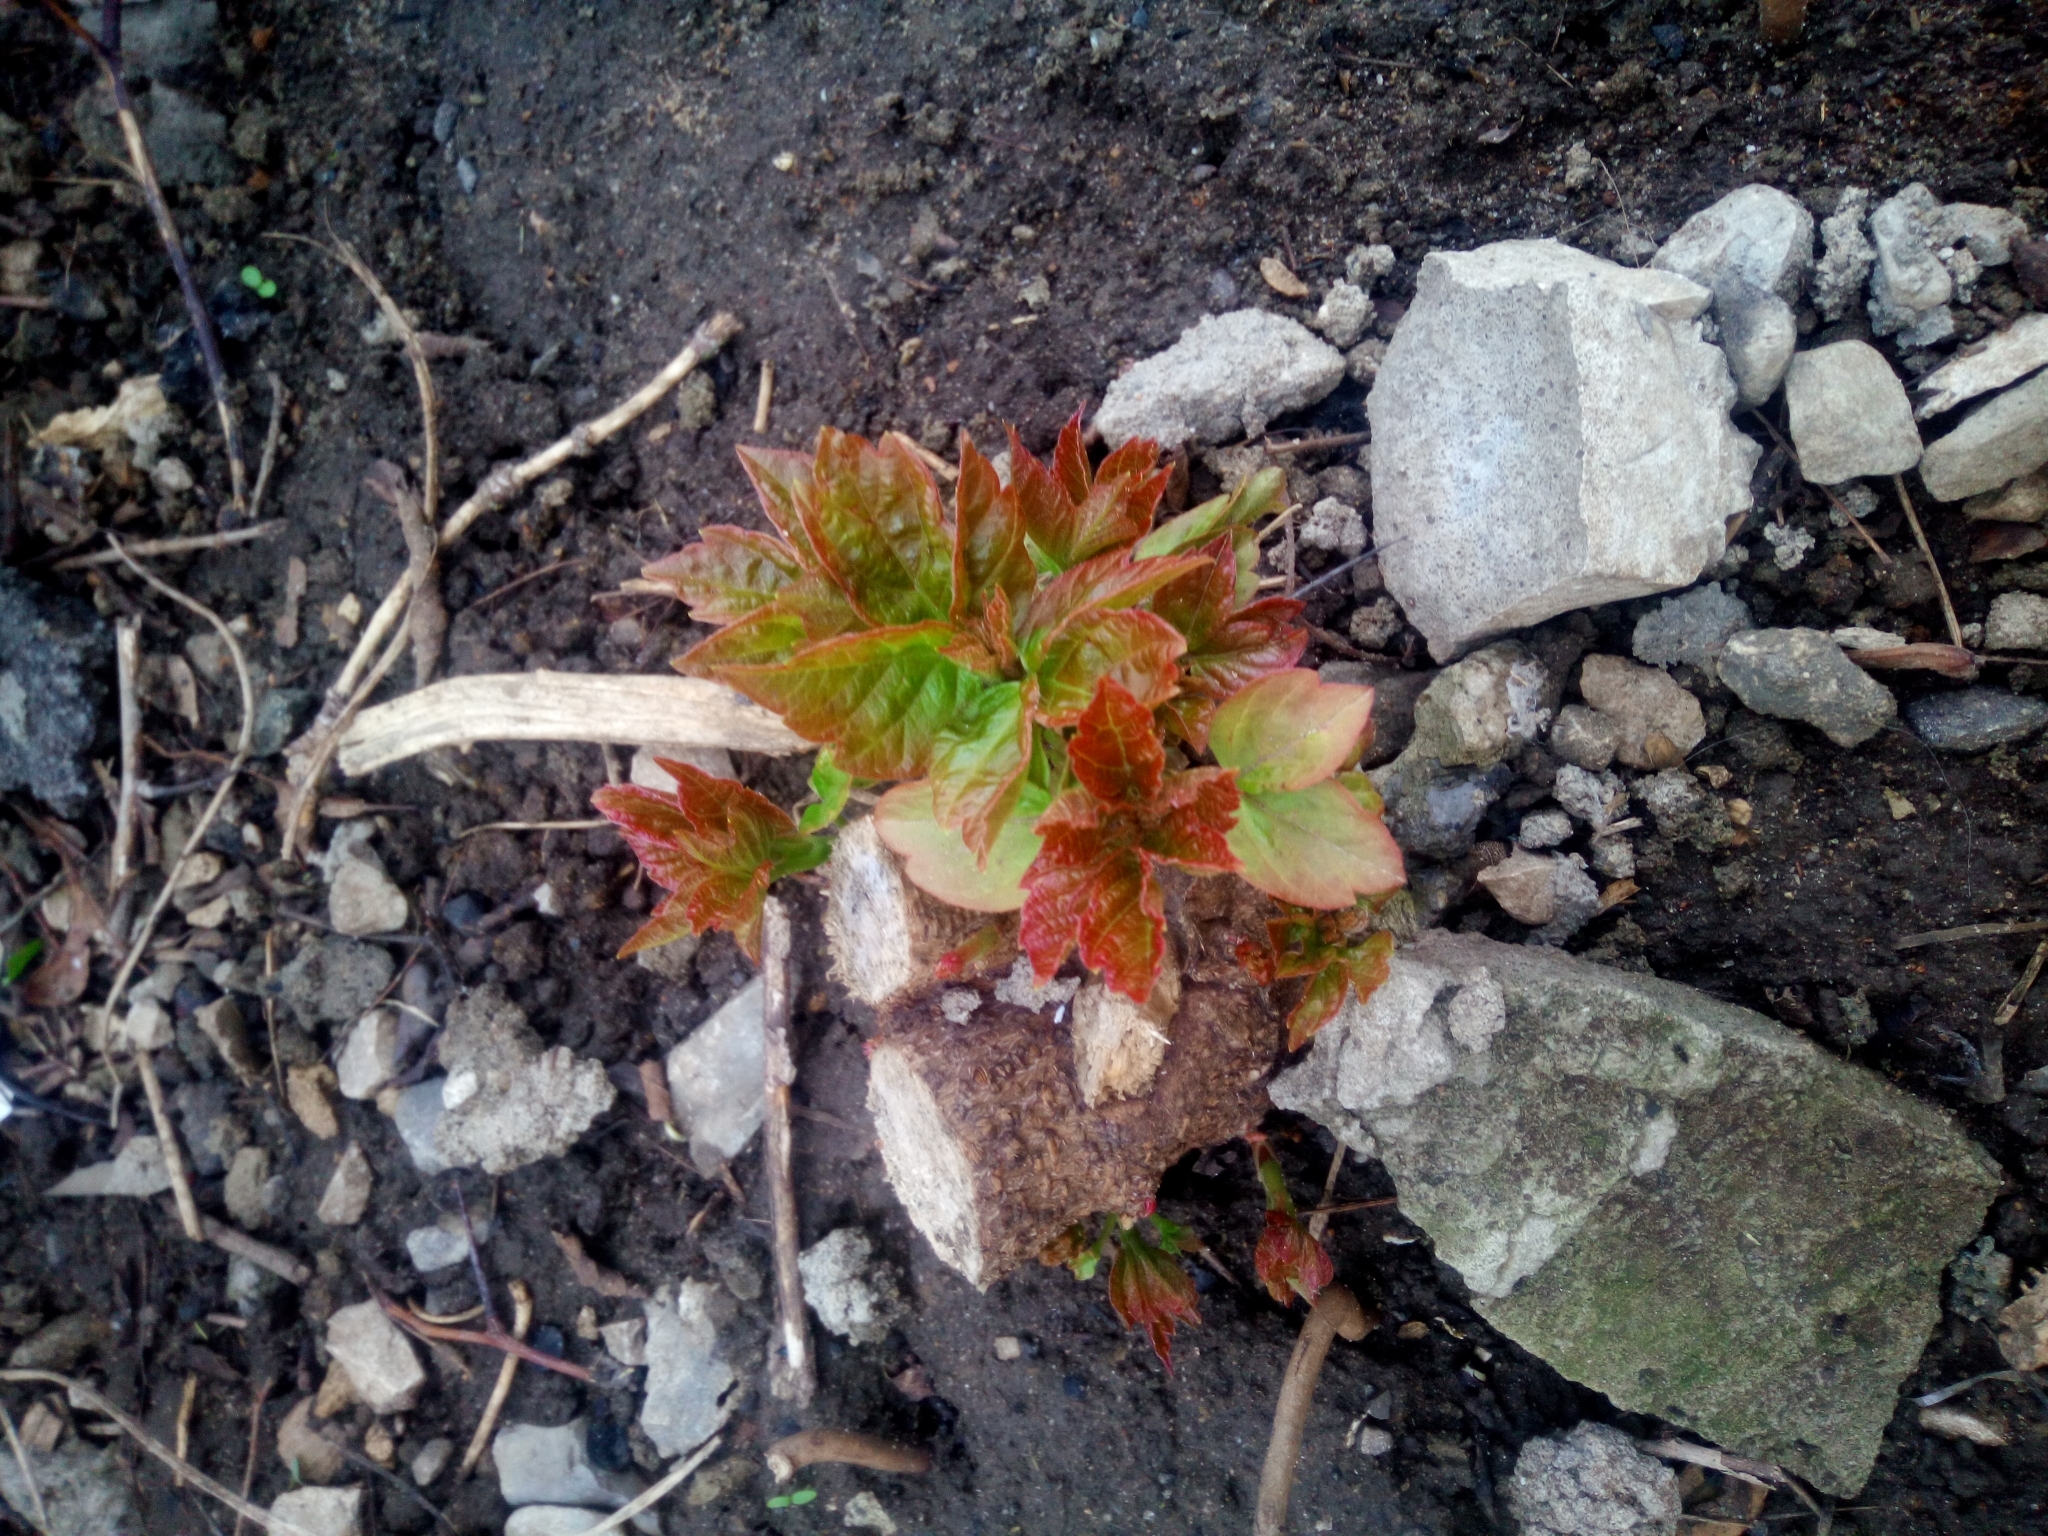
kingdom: Plantae
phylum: Tracheophyta
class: Magnoliopsida
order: Sapindales
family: Sapindaceae
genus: Acer
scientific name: Acer negundo
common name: Ashleaf maple
